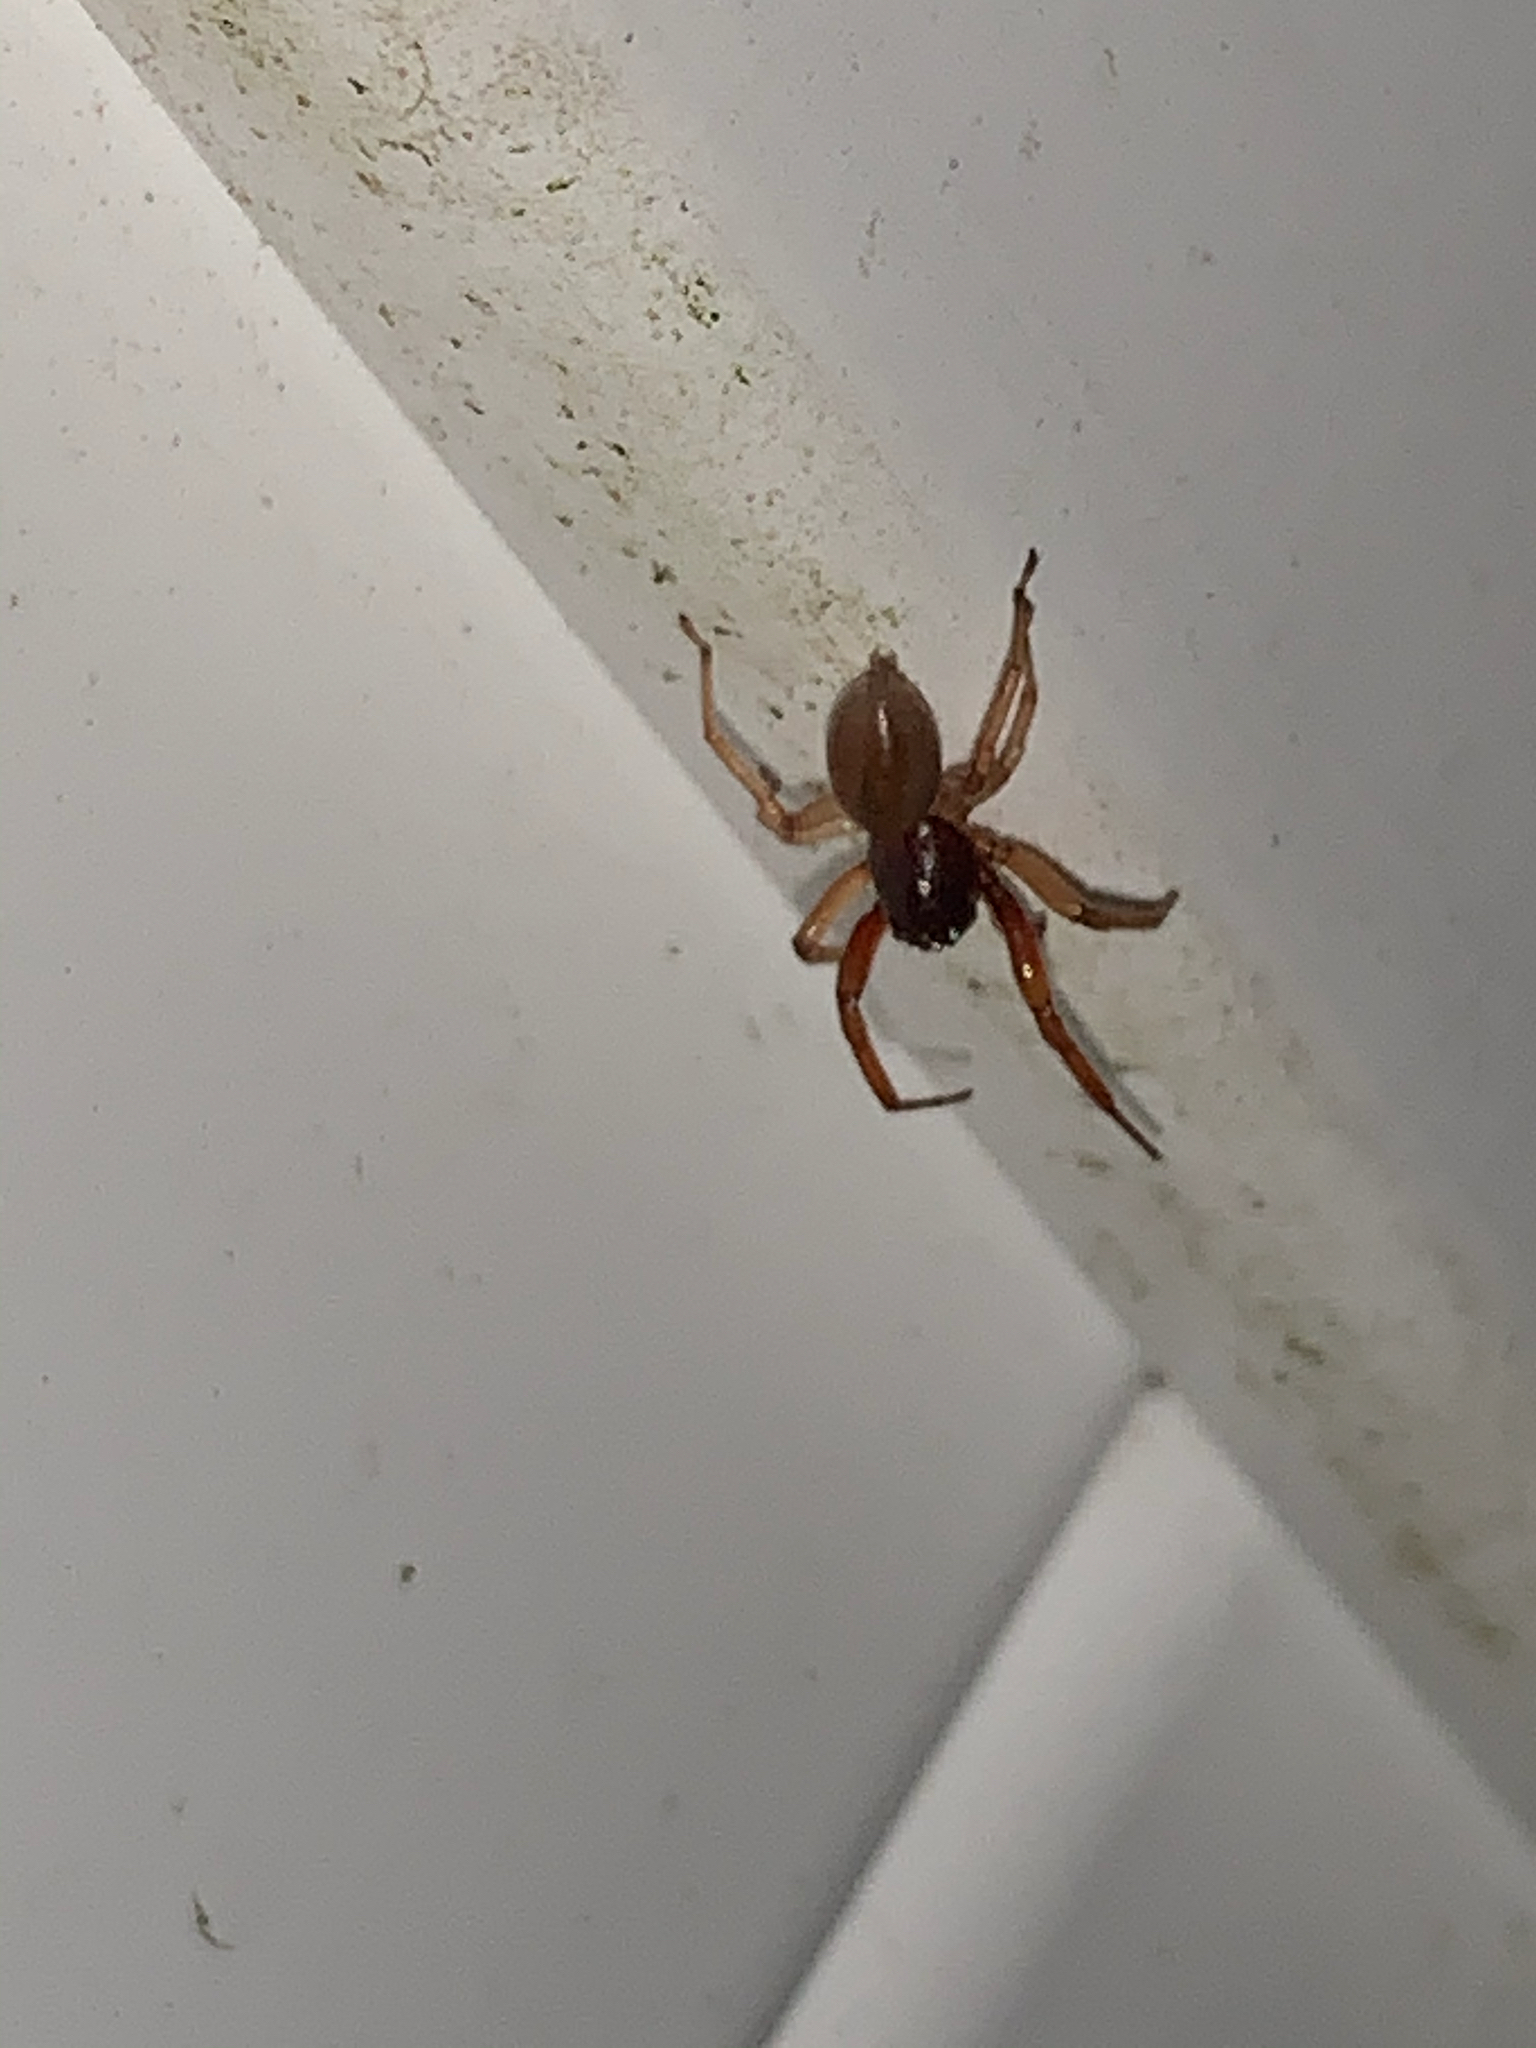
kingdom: Animalia
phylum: Arthropoda
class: Arachnida
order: Araneae
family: Trachelidae
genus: Trachelas
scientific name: Trachelas tranquillus
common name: Broad-faced sac spider
